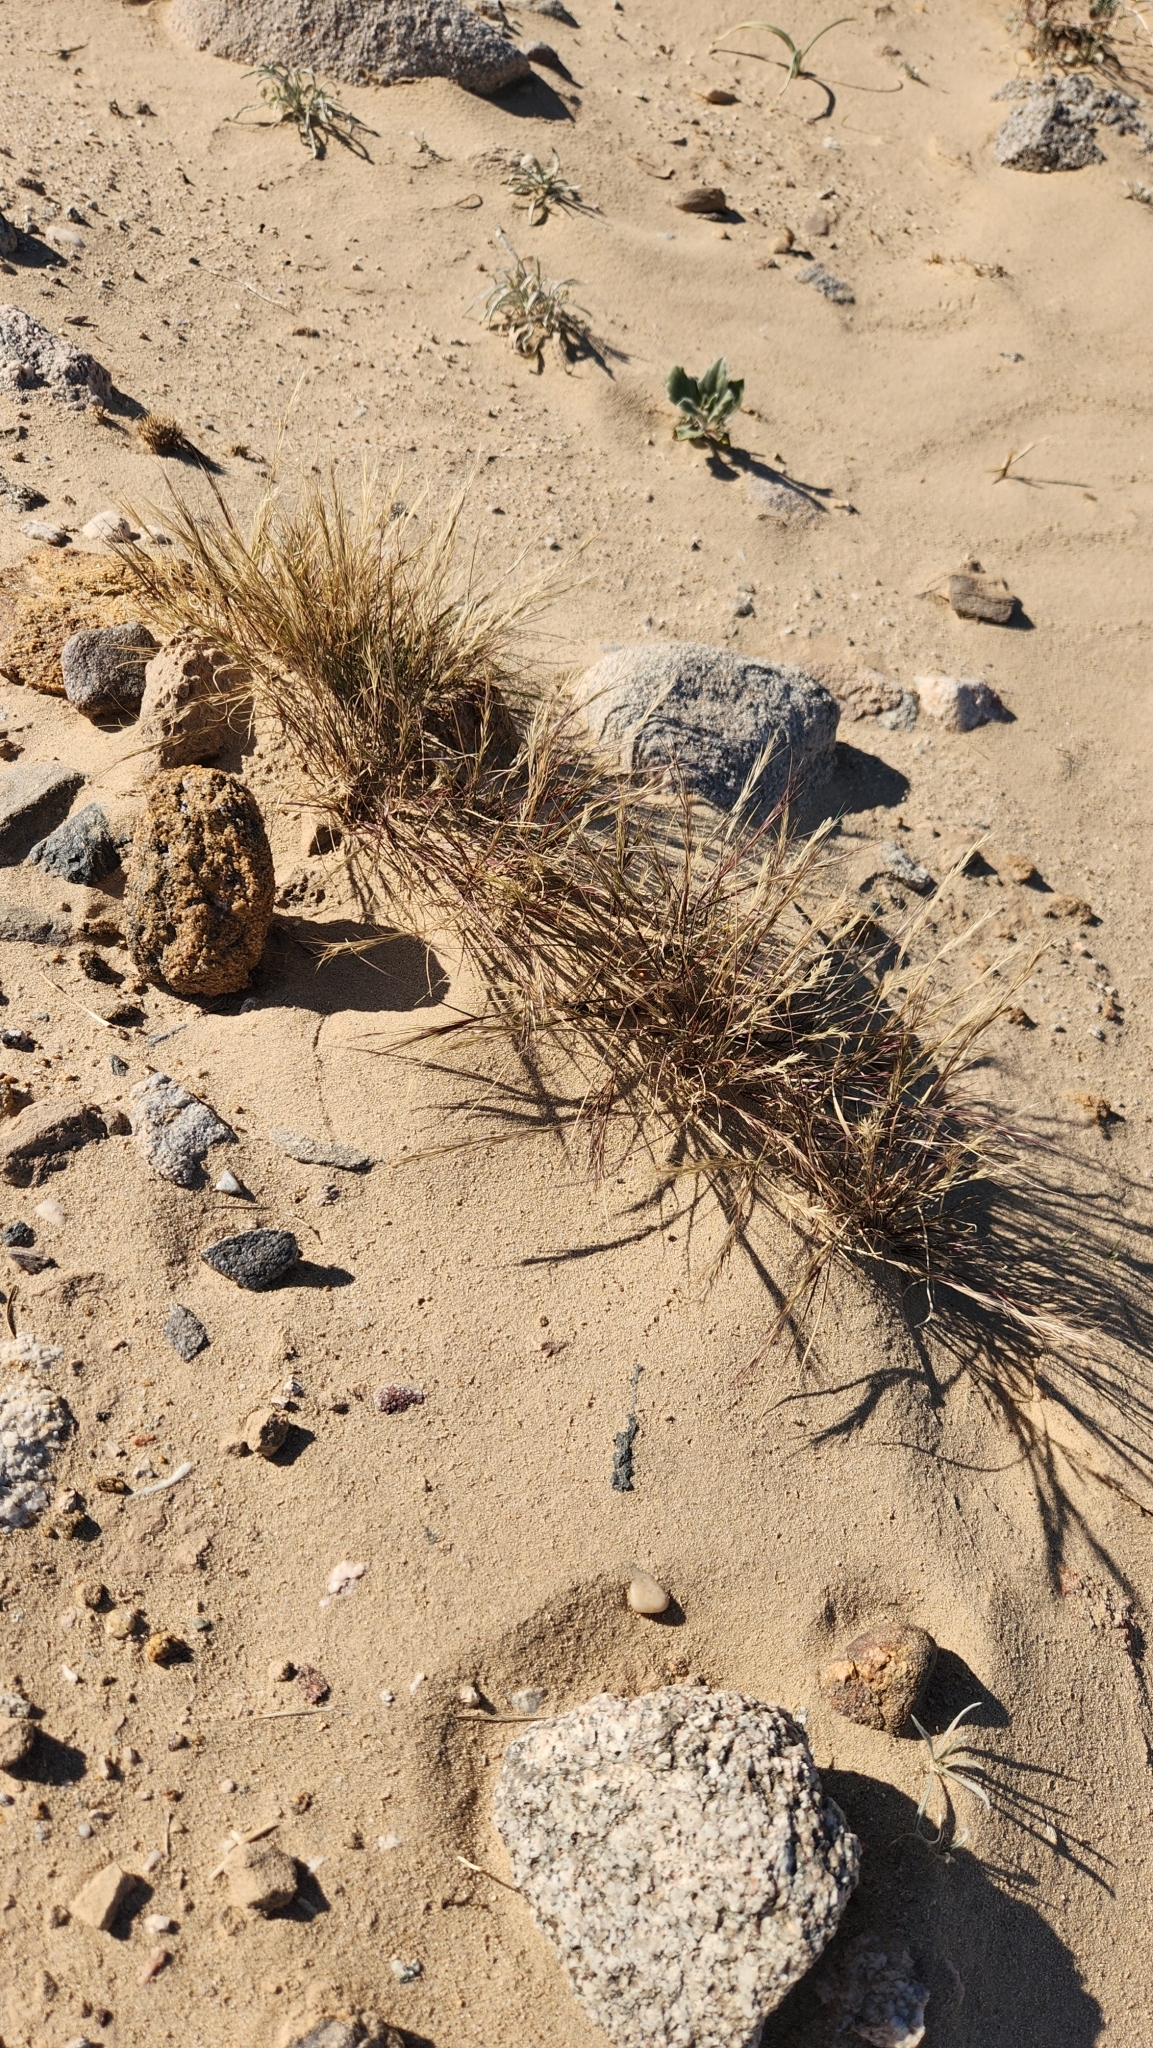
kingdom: Plantae
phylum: Tracheophyta
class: Liliopsida
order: Poales
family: Poaceae
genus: Aristida
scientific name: Aristida adscensionis
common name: Sixweeks threeawn
